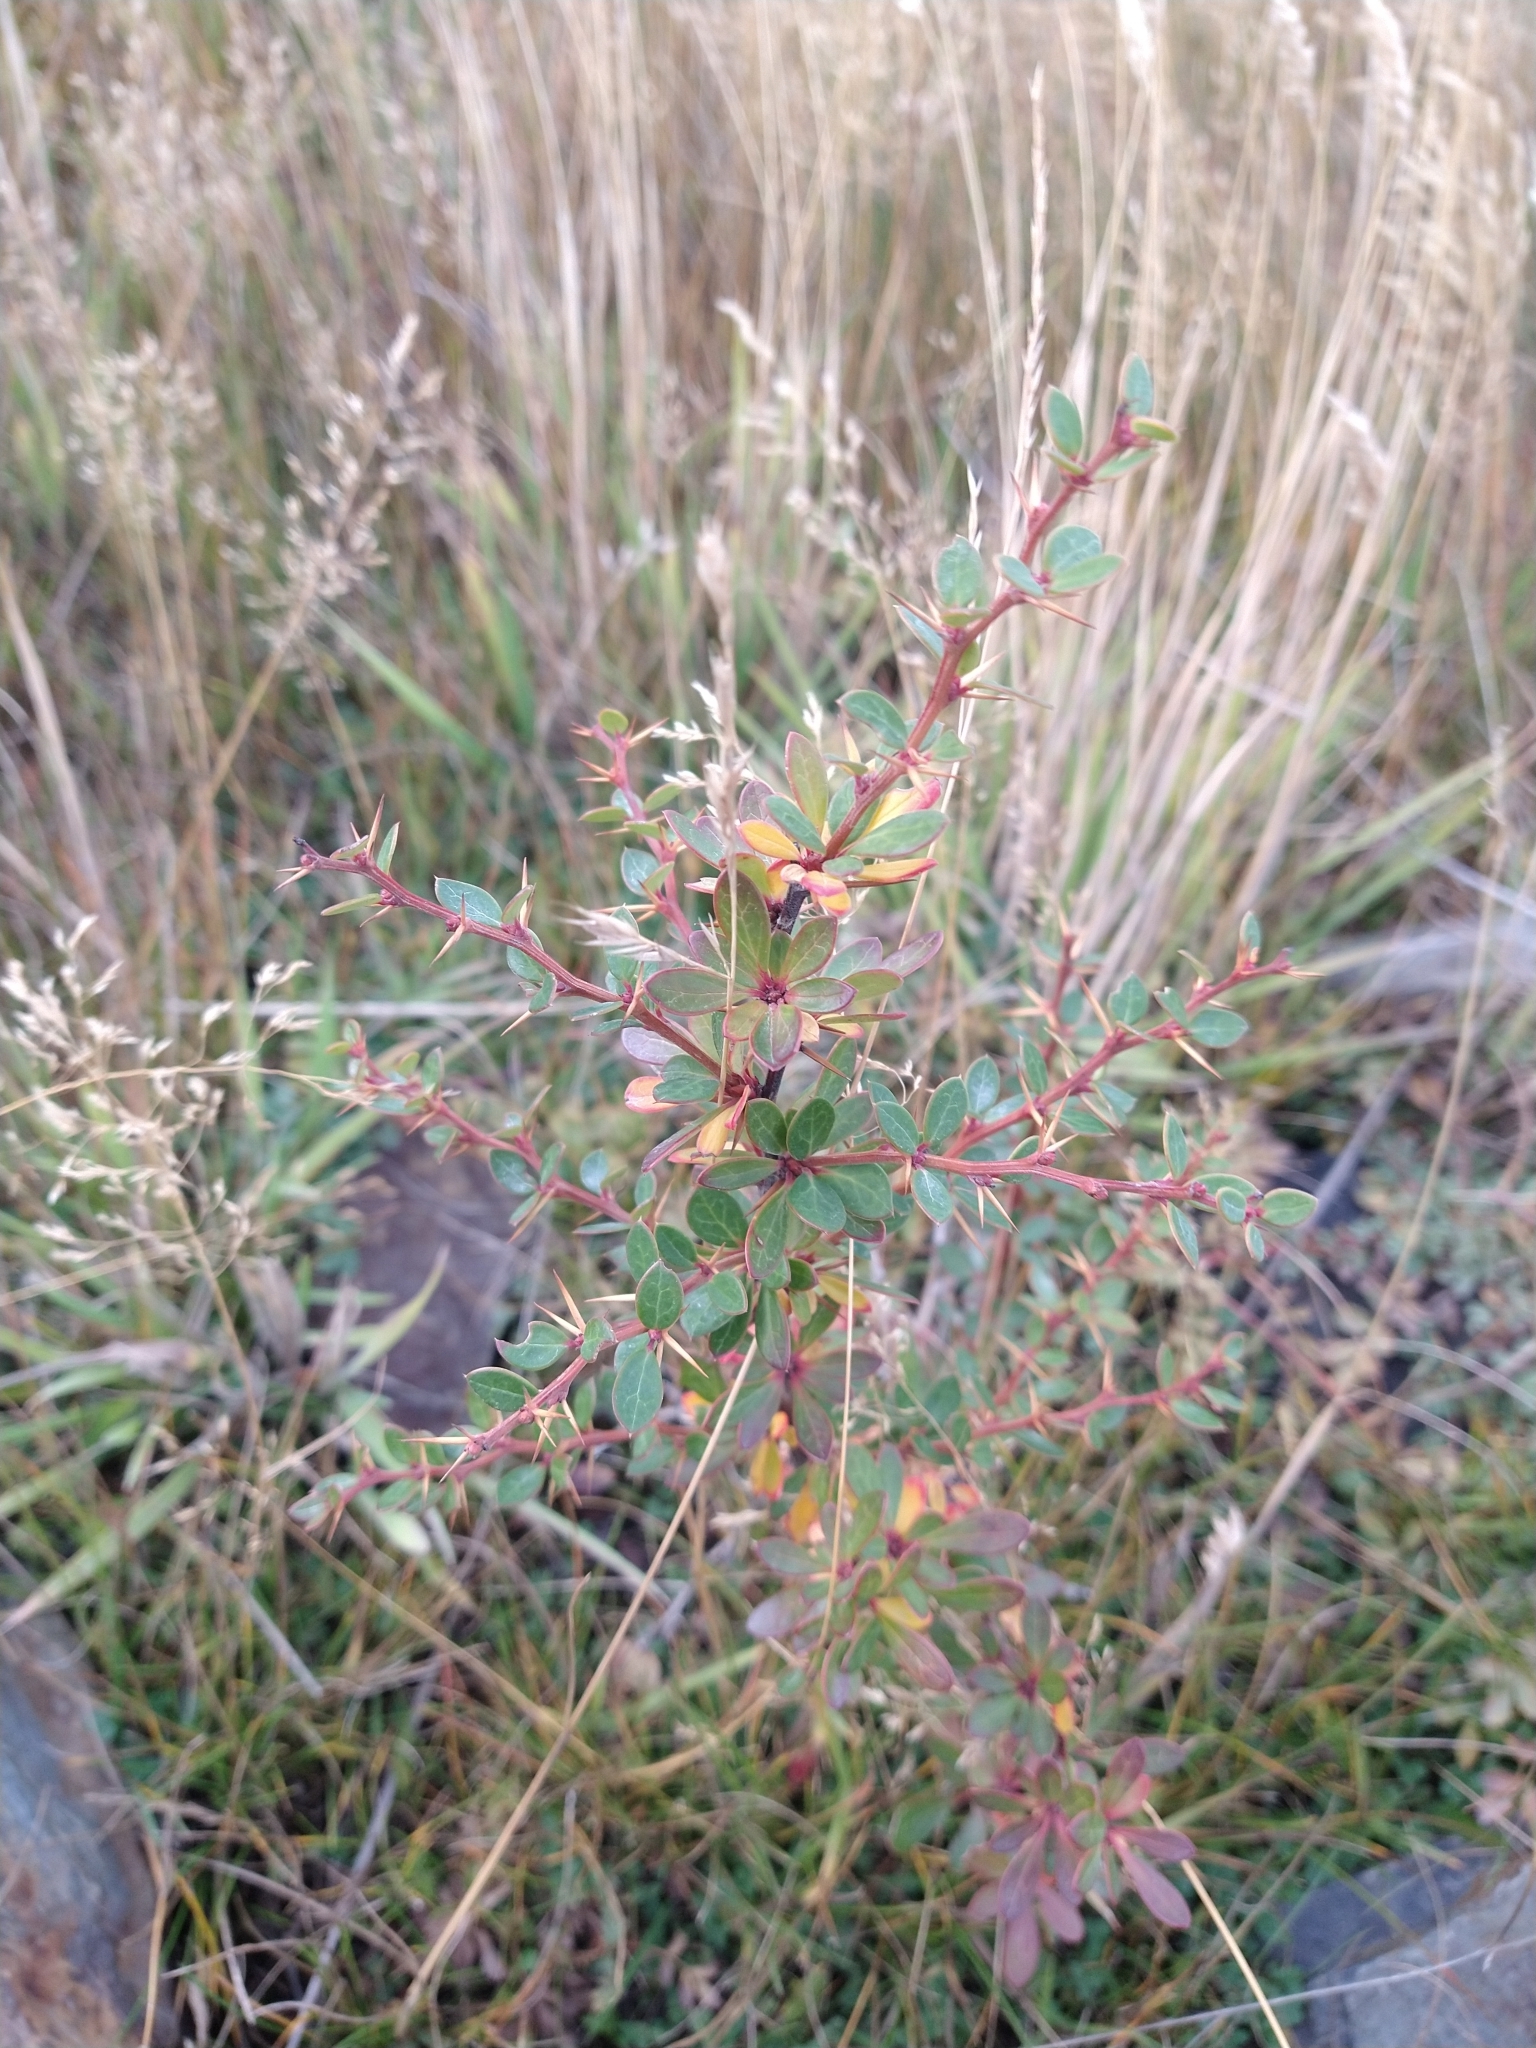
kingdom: Plantae
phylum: Tracheophyta
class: Magnoliopsida
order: Ranunculales
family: Berberidaceae
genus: Berberis
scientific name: Berberis microphylla
